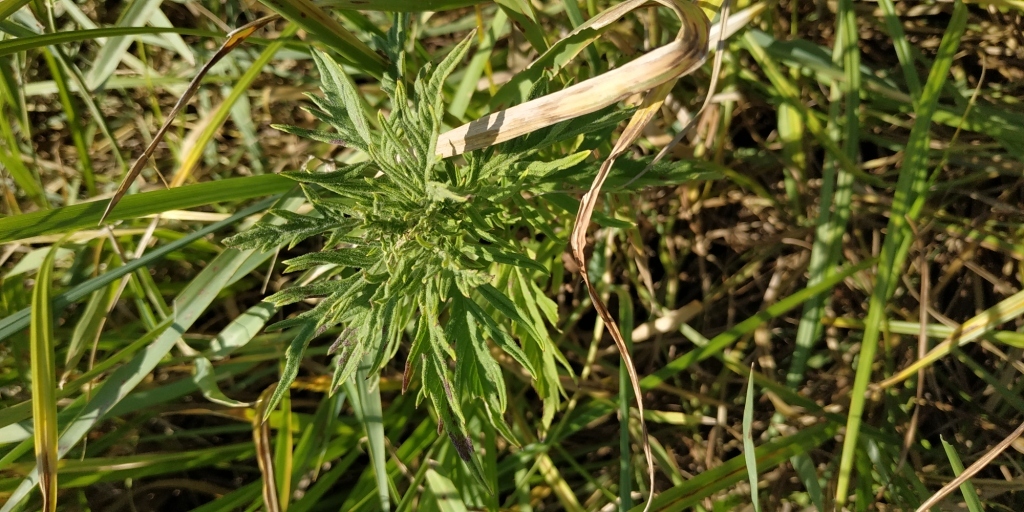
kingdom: Plantae
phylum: Tracheophyta
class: Magnoliopsida
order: Lamiales
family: Lamiaceae
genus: Lycopus
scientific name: Lycopus exaltatus
